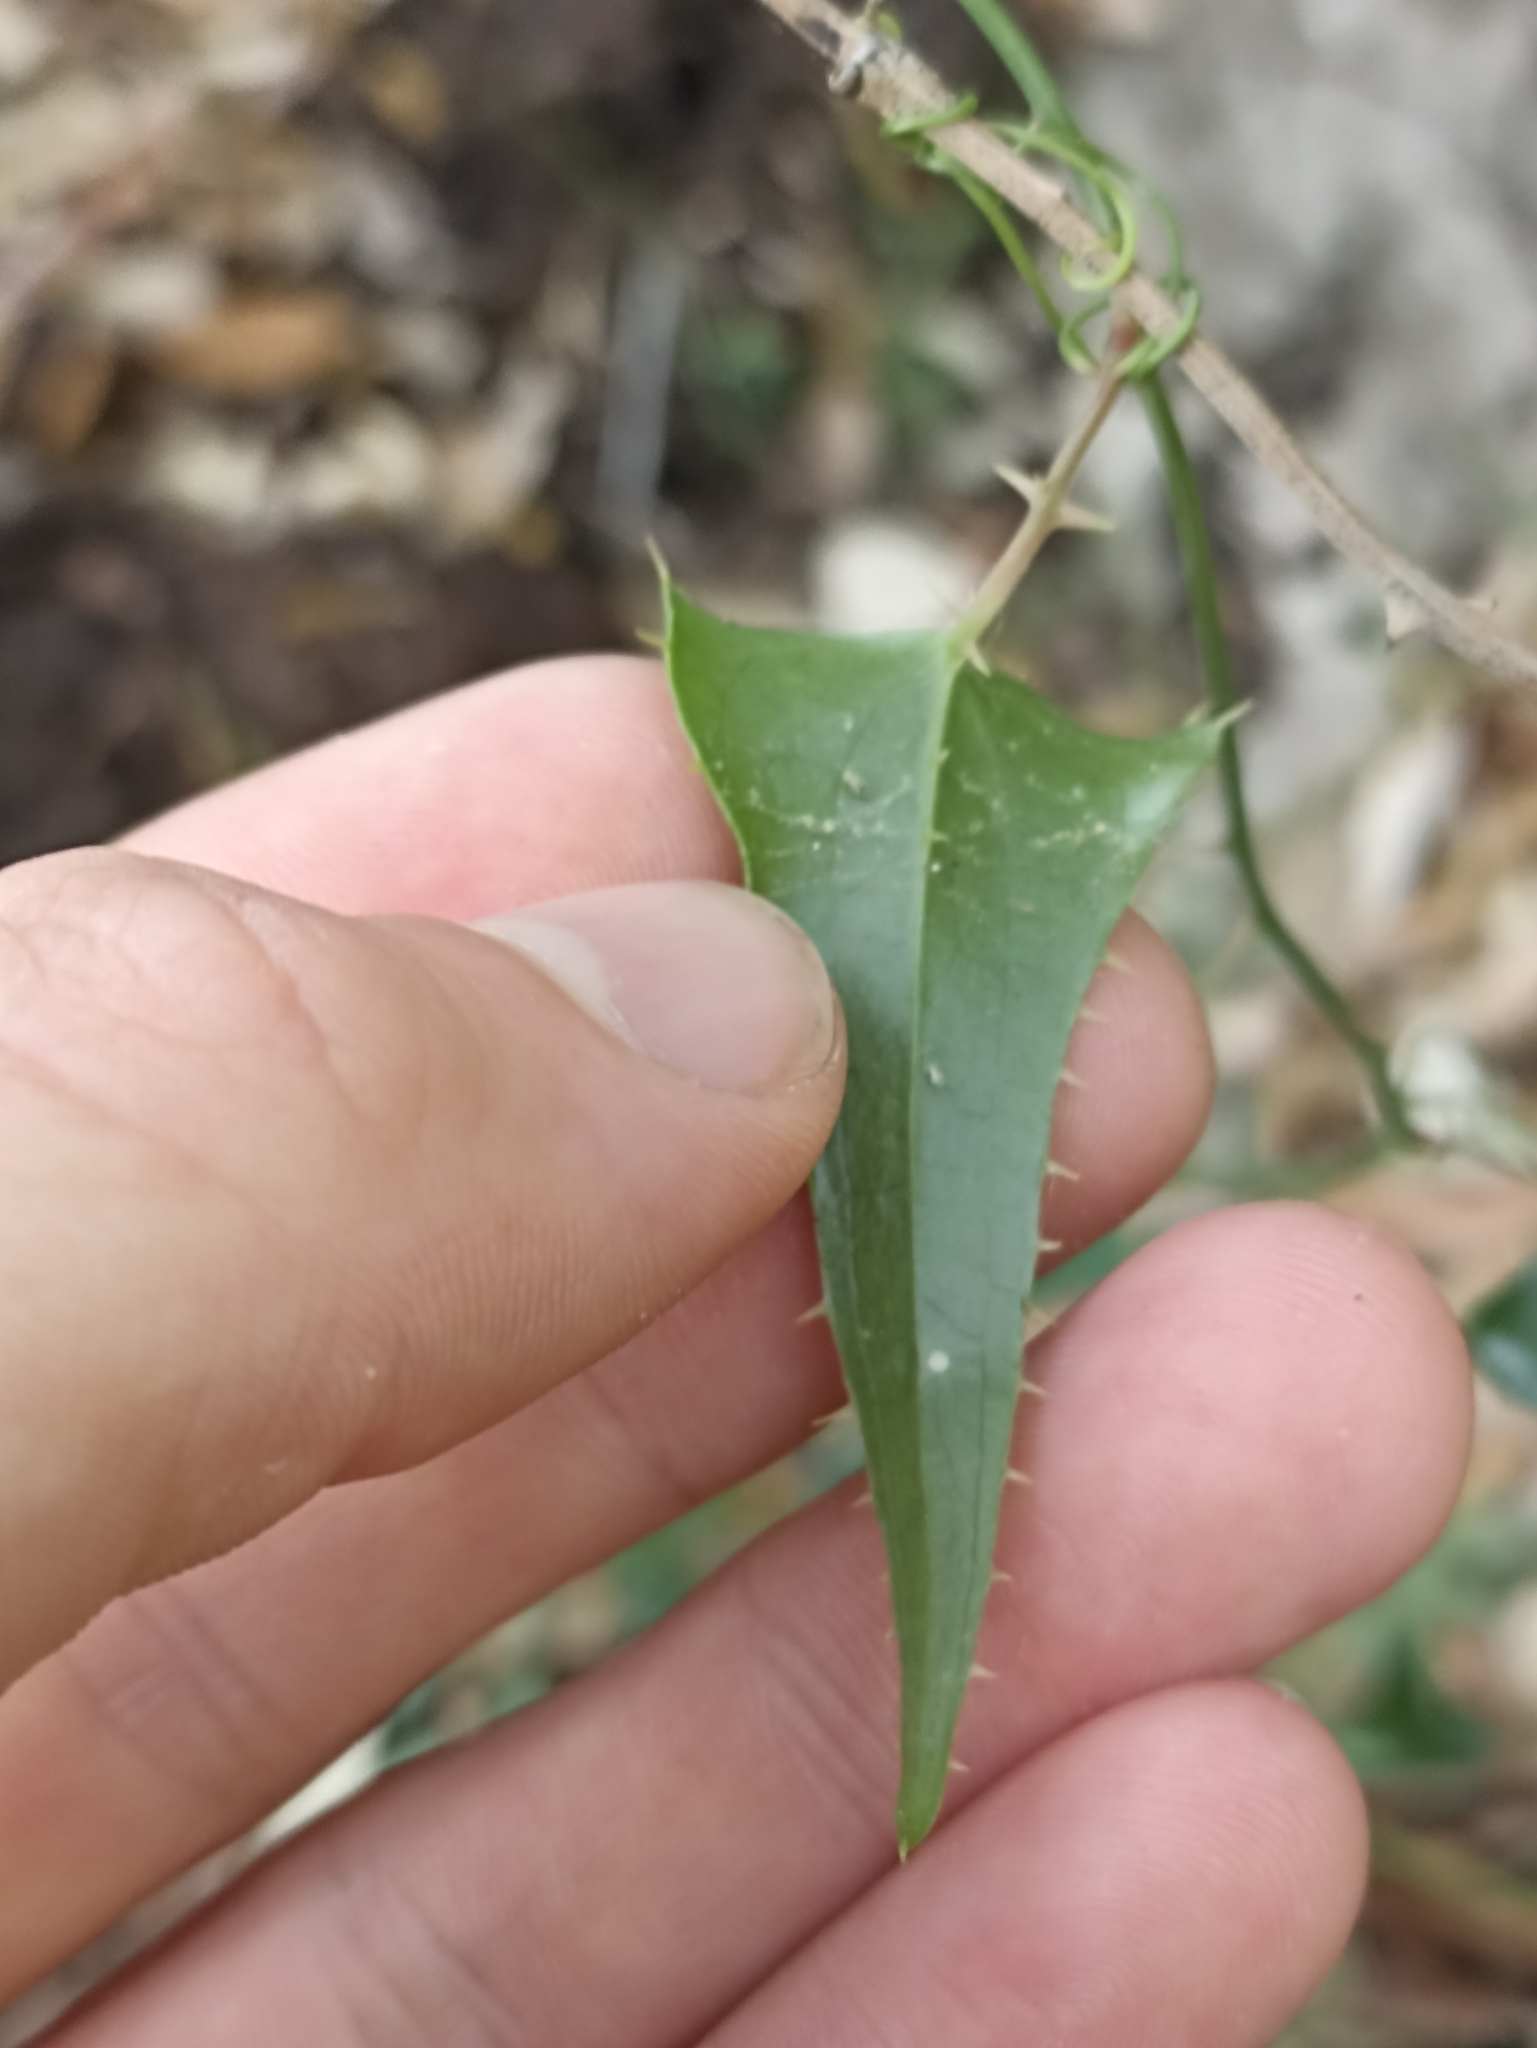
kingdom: Plantae
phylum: Tracheophyta
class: Liliopsida
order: Liliales
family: Smilacaceae
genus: Smilax
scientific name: Smilax aspera
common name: Common smilax
